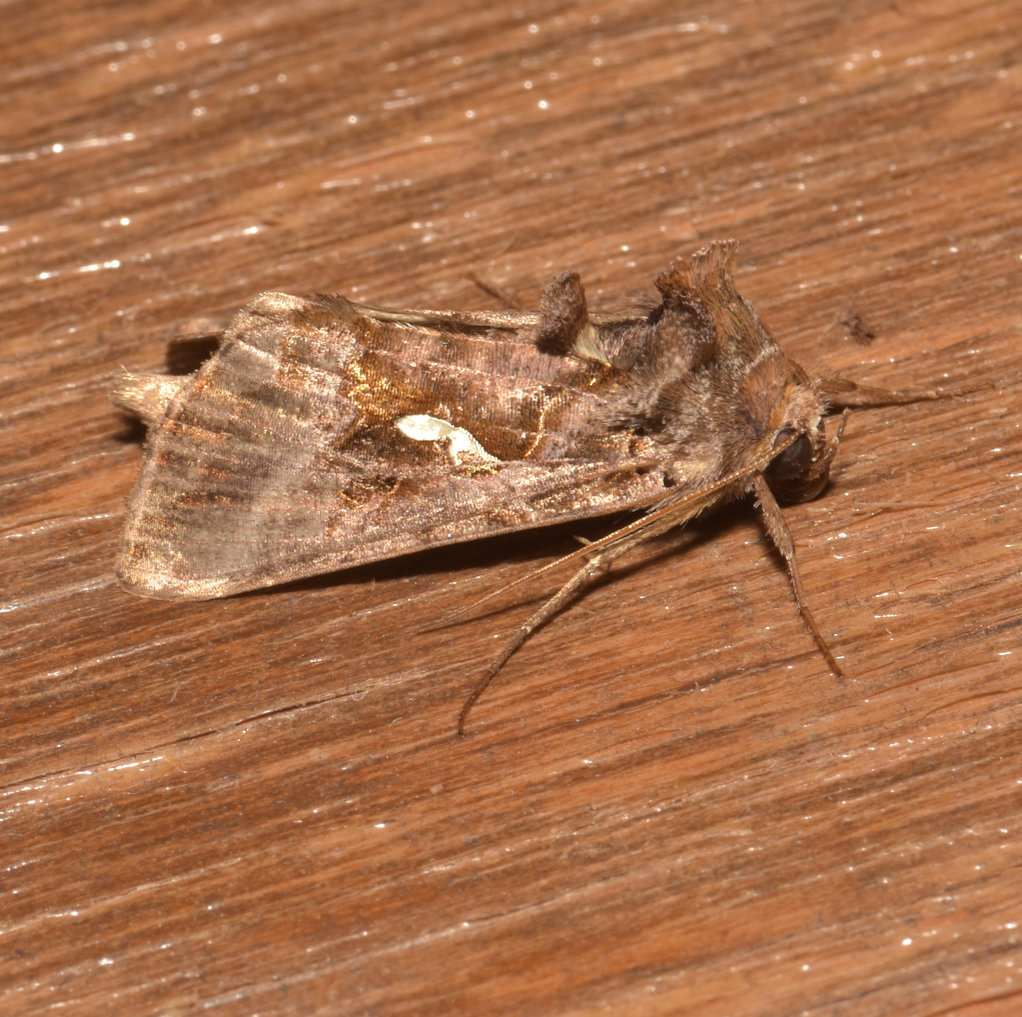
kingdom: Animalia
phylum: Arthropoda
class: Insecta
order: Lepidoptera
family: Noctuidae
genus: Autographa
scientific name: Autographa precationis
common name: Common looper moth
